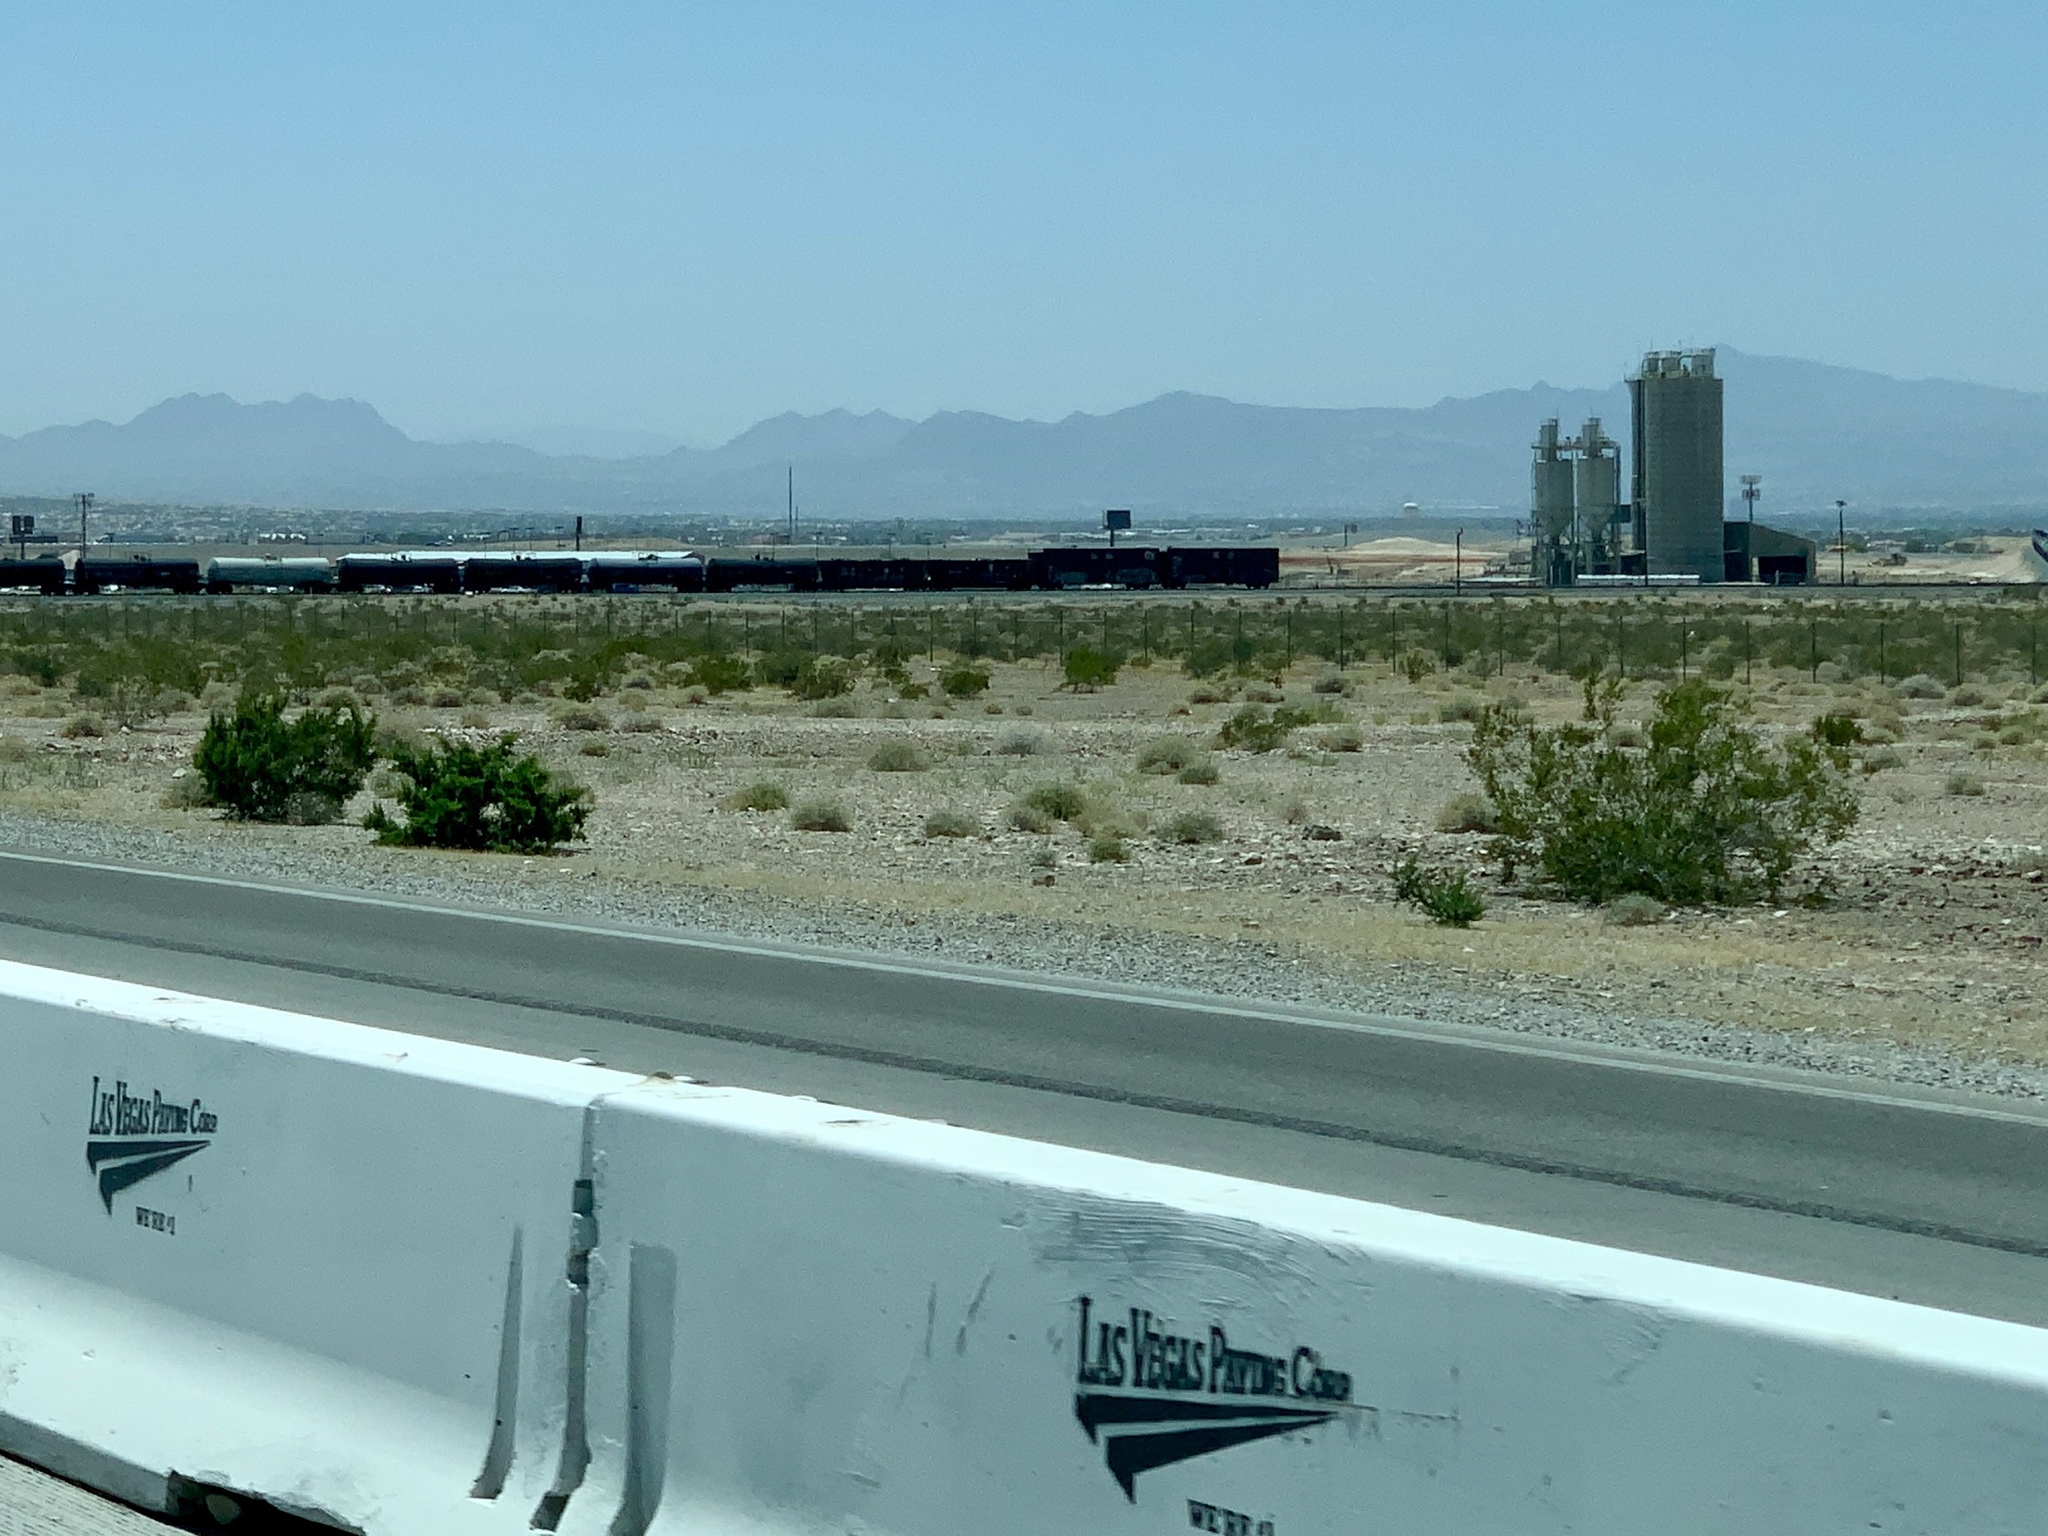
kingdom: Plantae
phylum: Tracheophyta
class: Magnoliopsida
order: Zygophyllales
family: Zygophyllaceae
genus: Larrea
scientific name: Larrea tridentata
